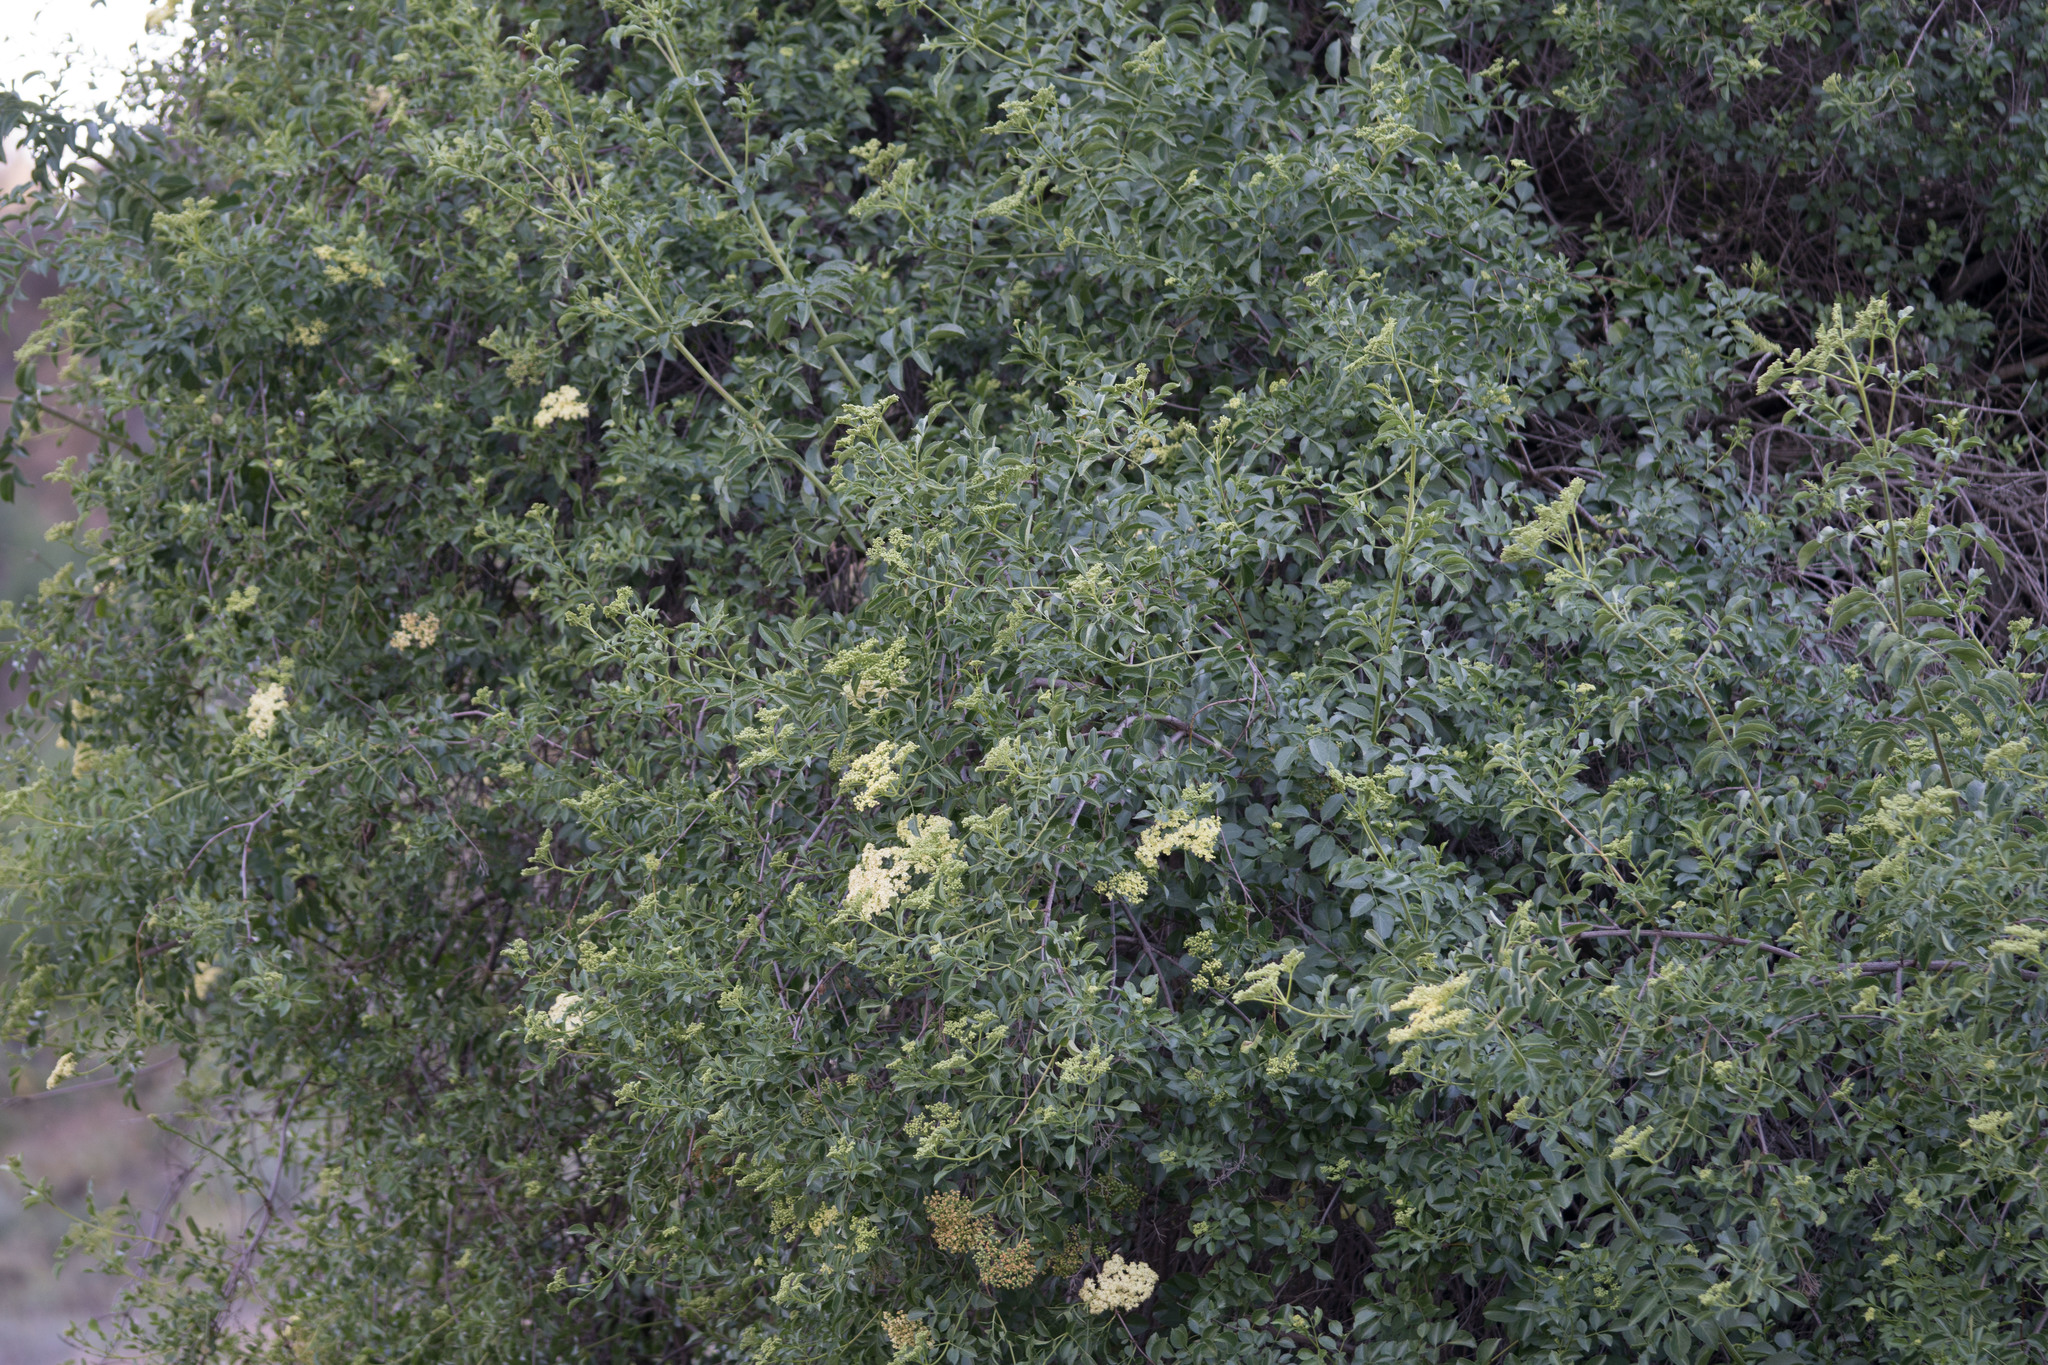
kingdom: Plantae
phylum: Tracheophyta
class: Magnoliopsida
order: Dipsacales
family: Viburnaceae
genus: Sambucus
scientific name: Sambucus cerulea
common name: Blue elder
